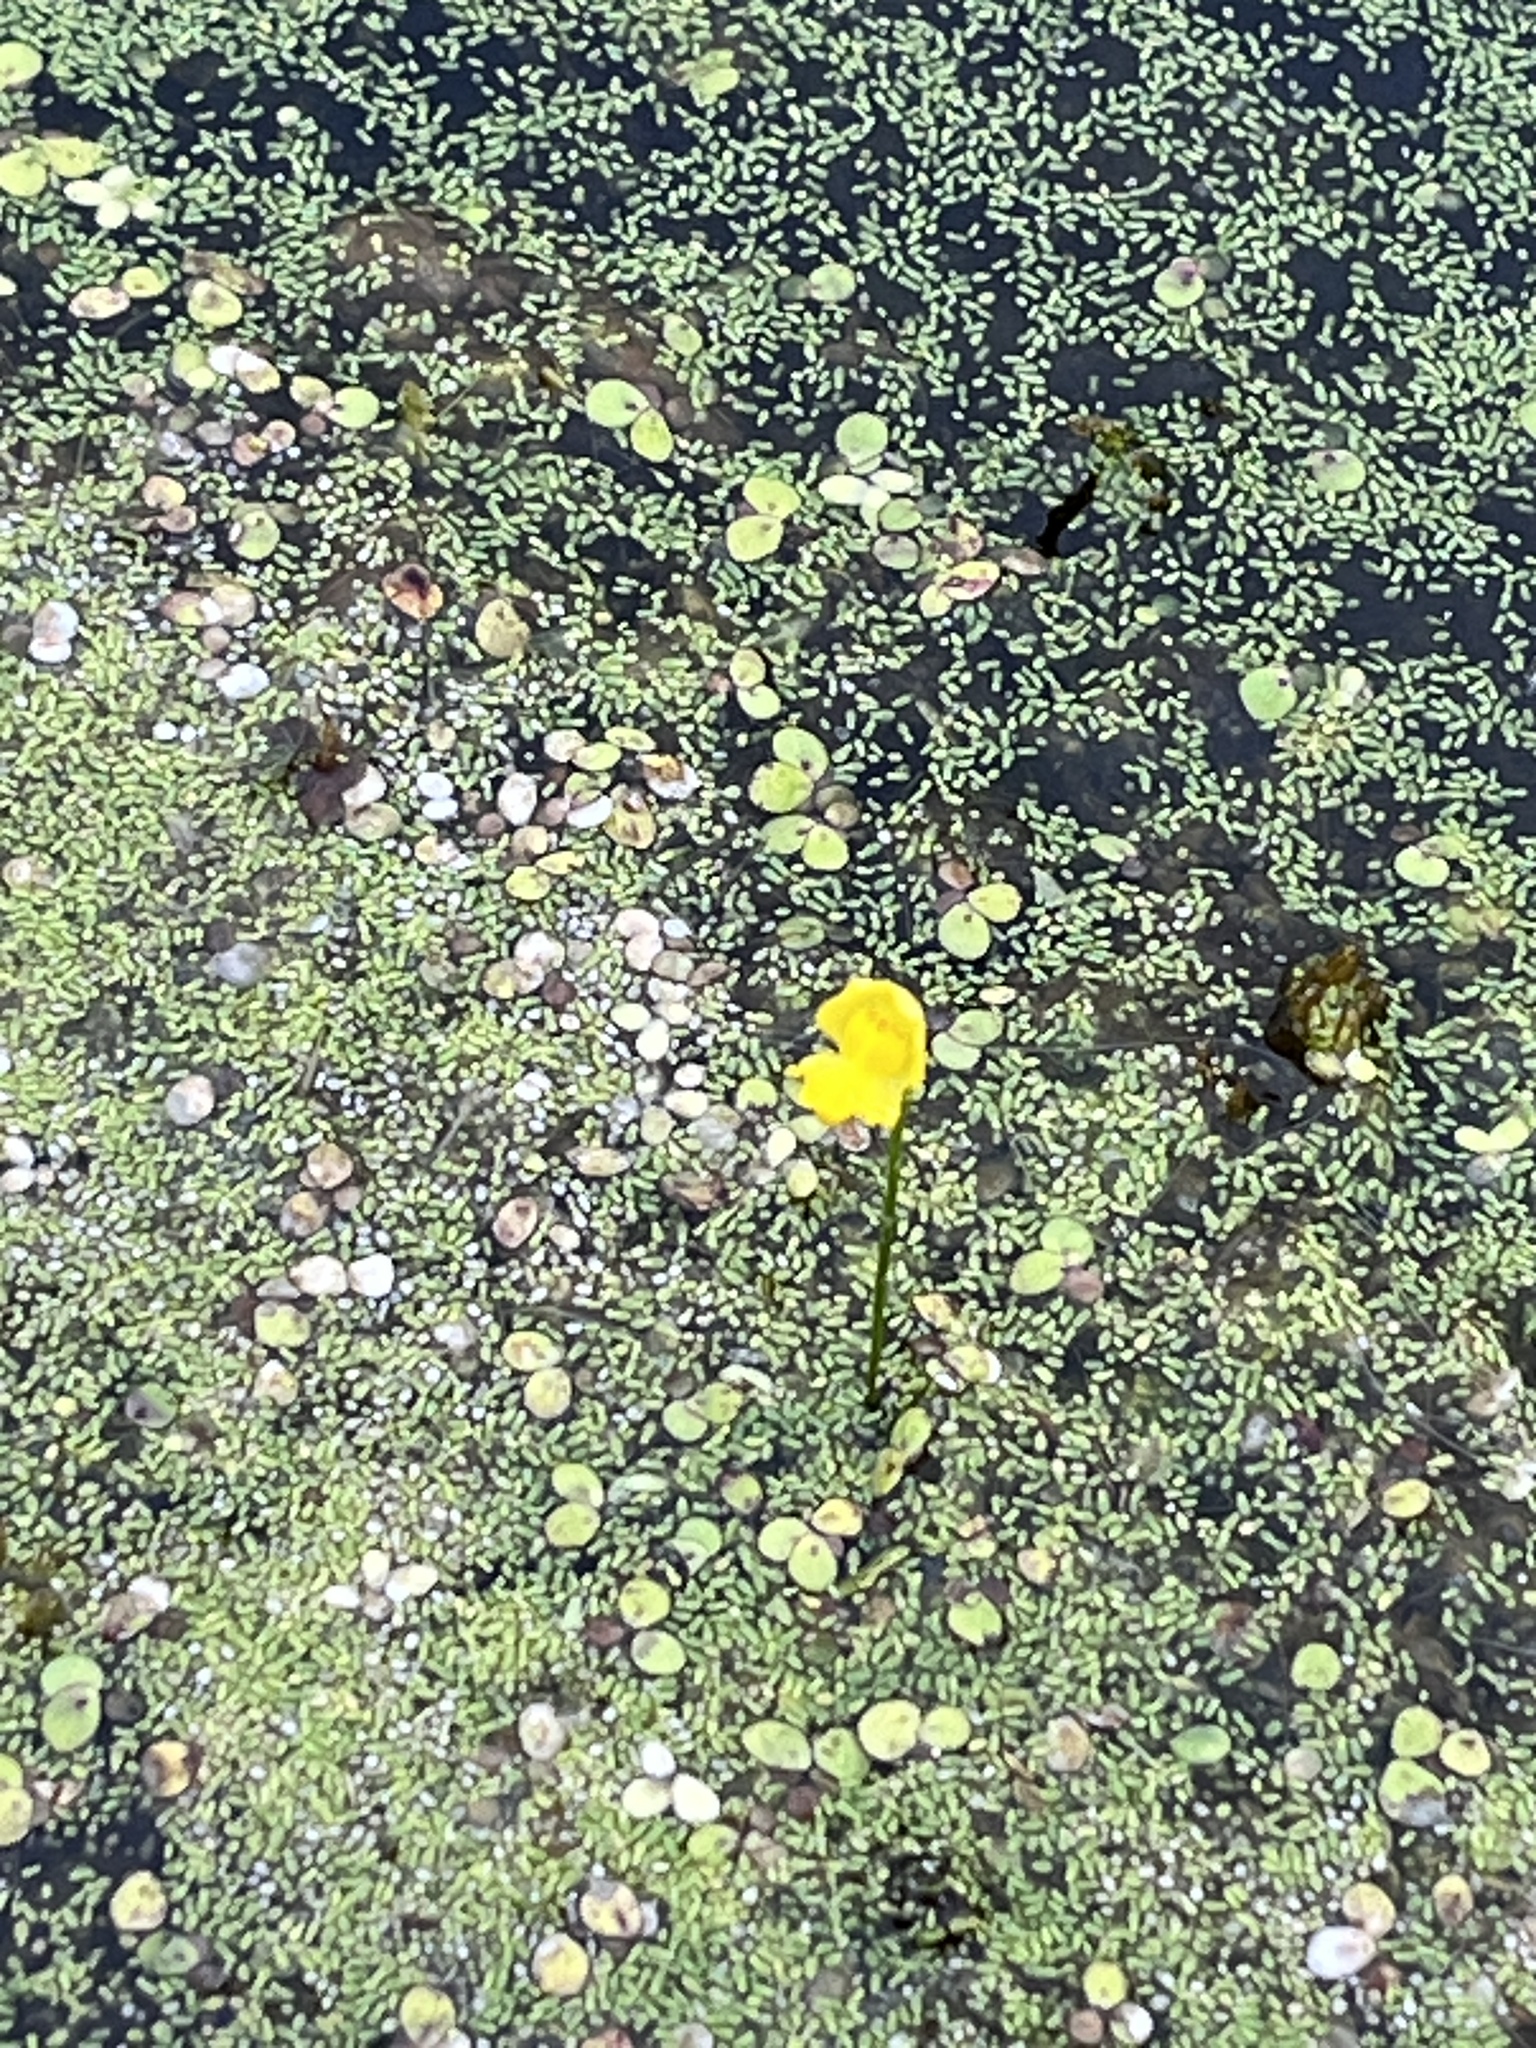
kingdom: Plantae
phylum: Tracheophyta
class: Magnoliopsida
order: Lamiales
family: Lentibulariaceae
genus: Utricularia
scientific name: Utricularia gibba
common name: Humped bladderwort
